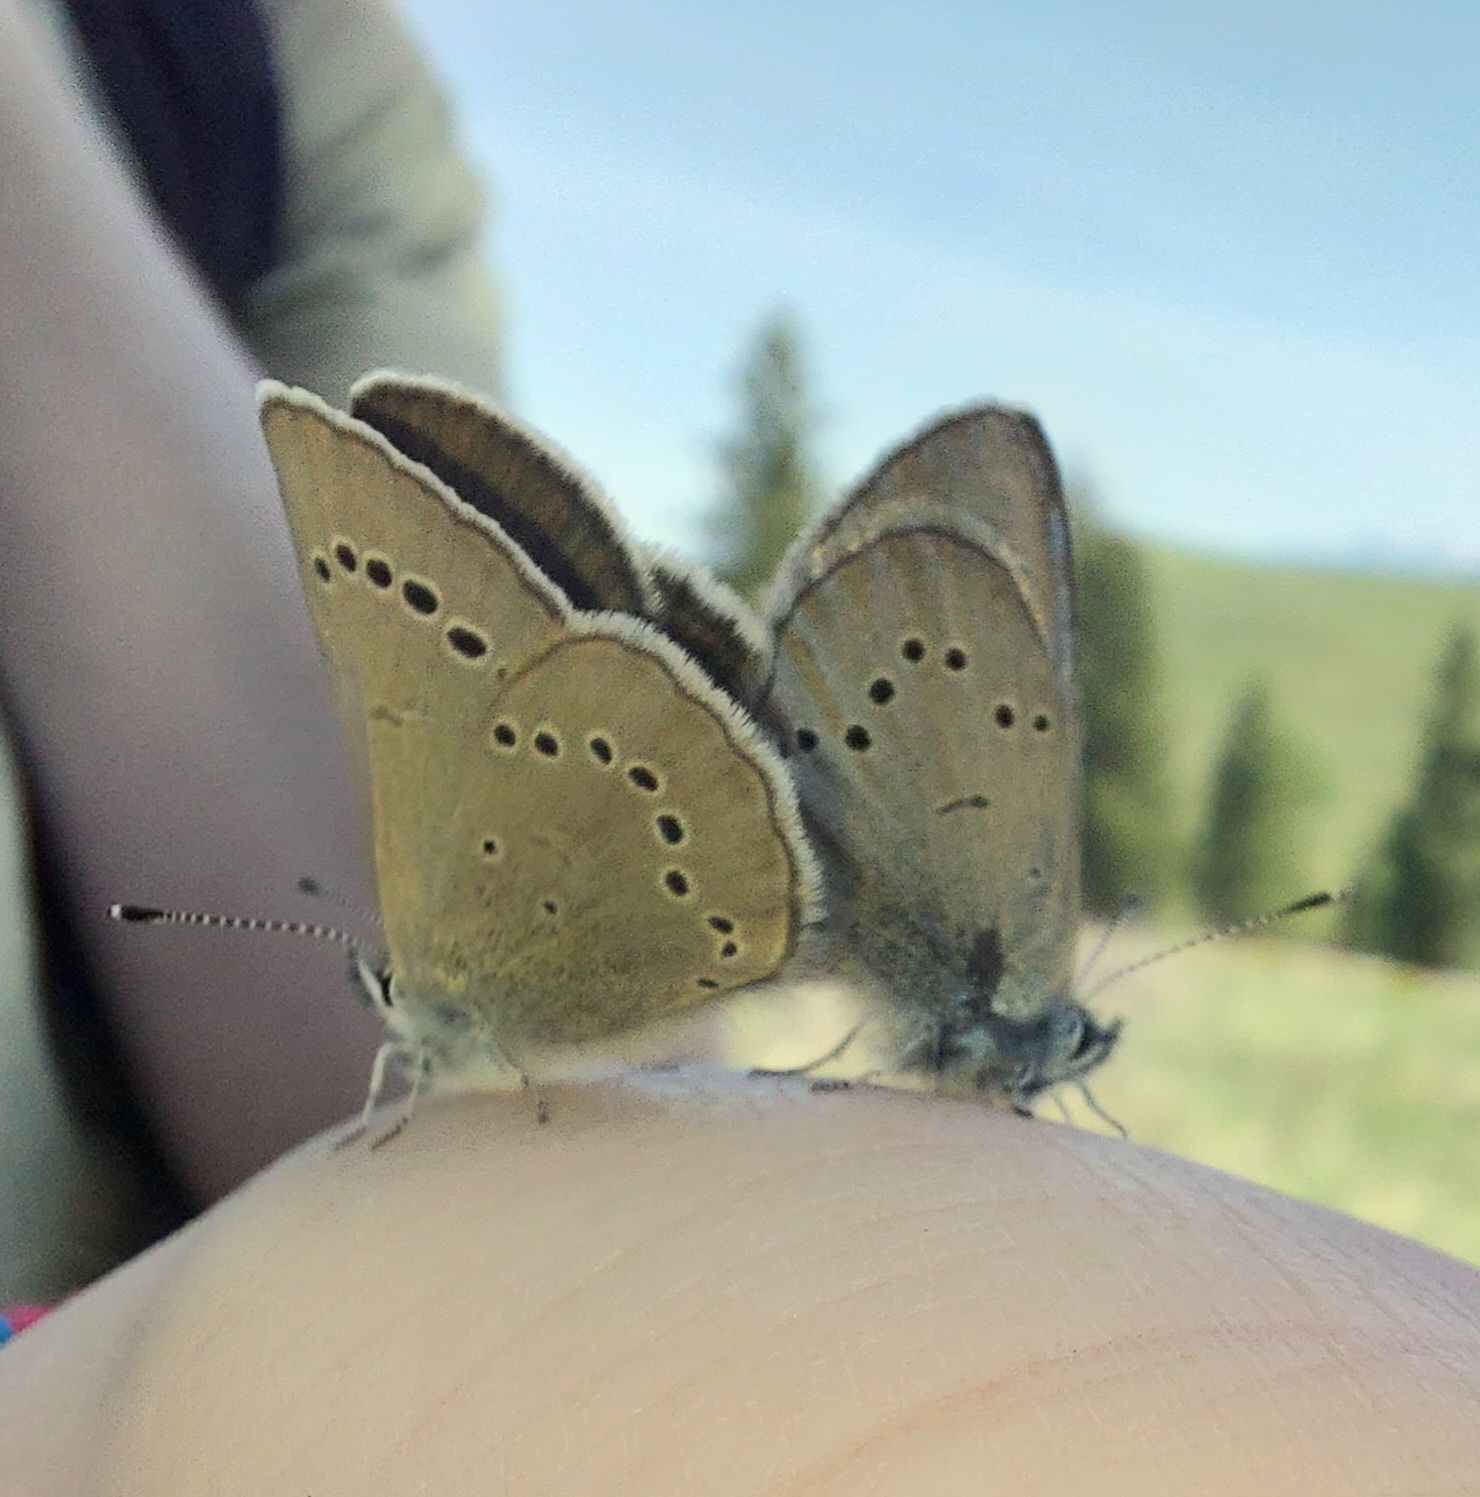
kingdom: Animalia
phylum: Arthropoda
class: Insecta
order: Lepidoptera
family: Lycaenidae
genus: Glaucopsyche
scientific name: Glaucopsyche lygdamus
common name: Silvery blue
